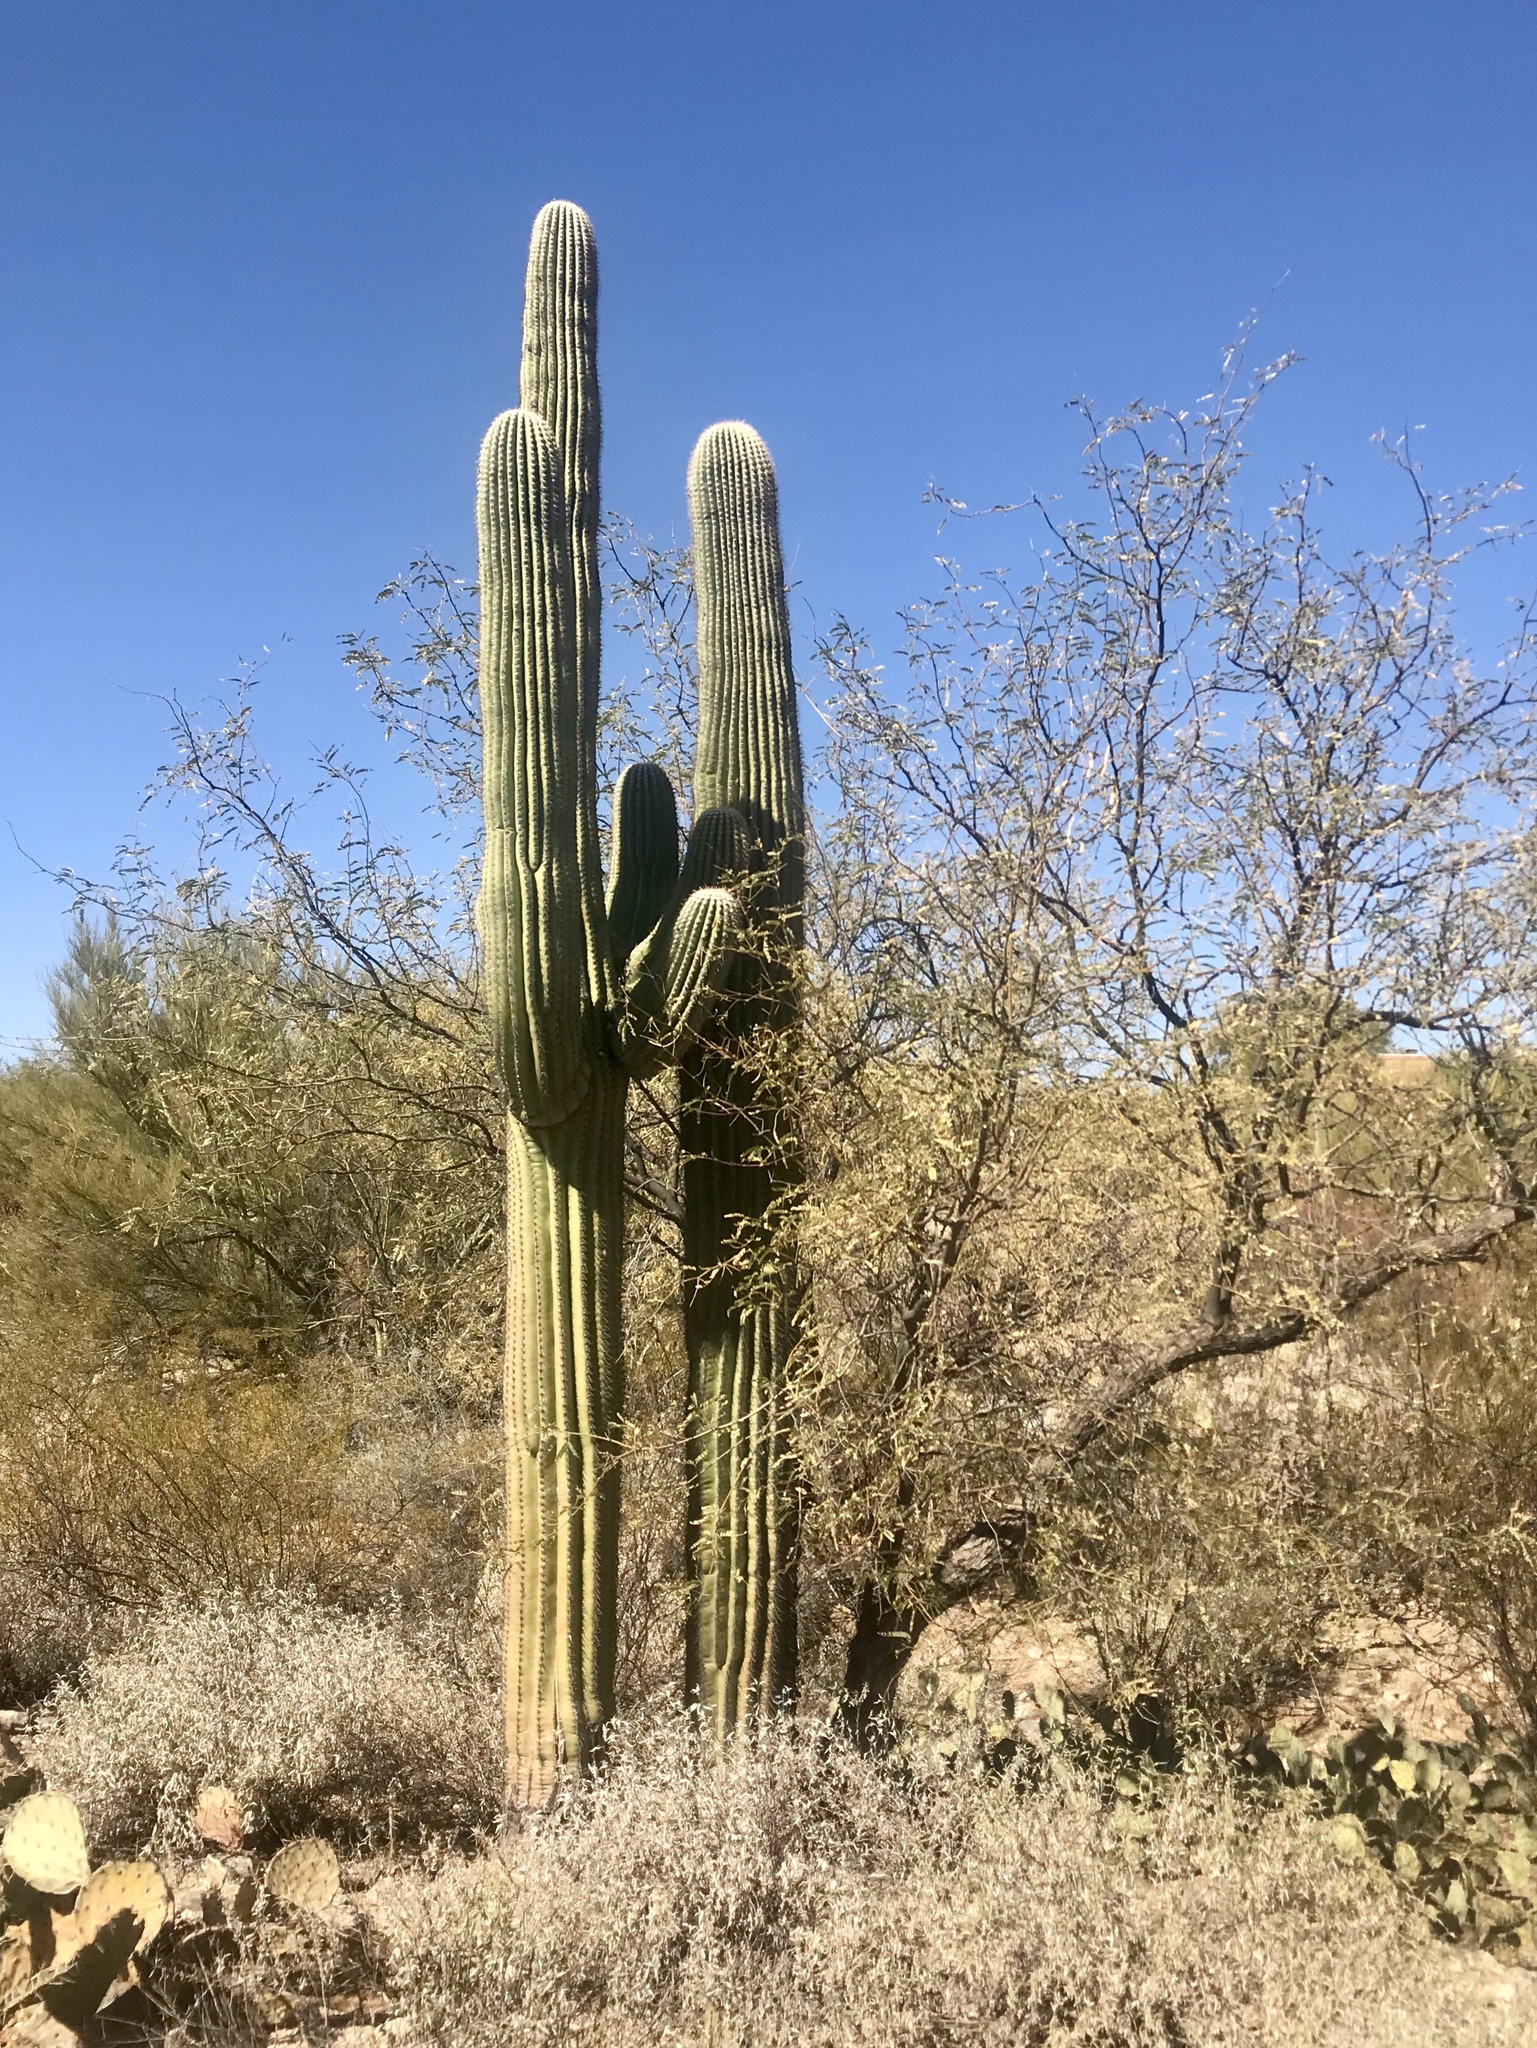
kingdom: Plantae
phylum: Tracheophyta
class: Magnoliopsida
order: Caryophyllales
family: Cactaceae
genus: Carnegiea
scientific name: Carnegiea gigantea
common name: Saguaro
